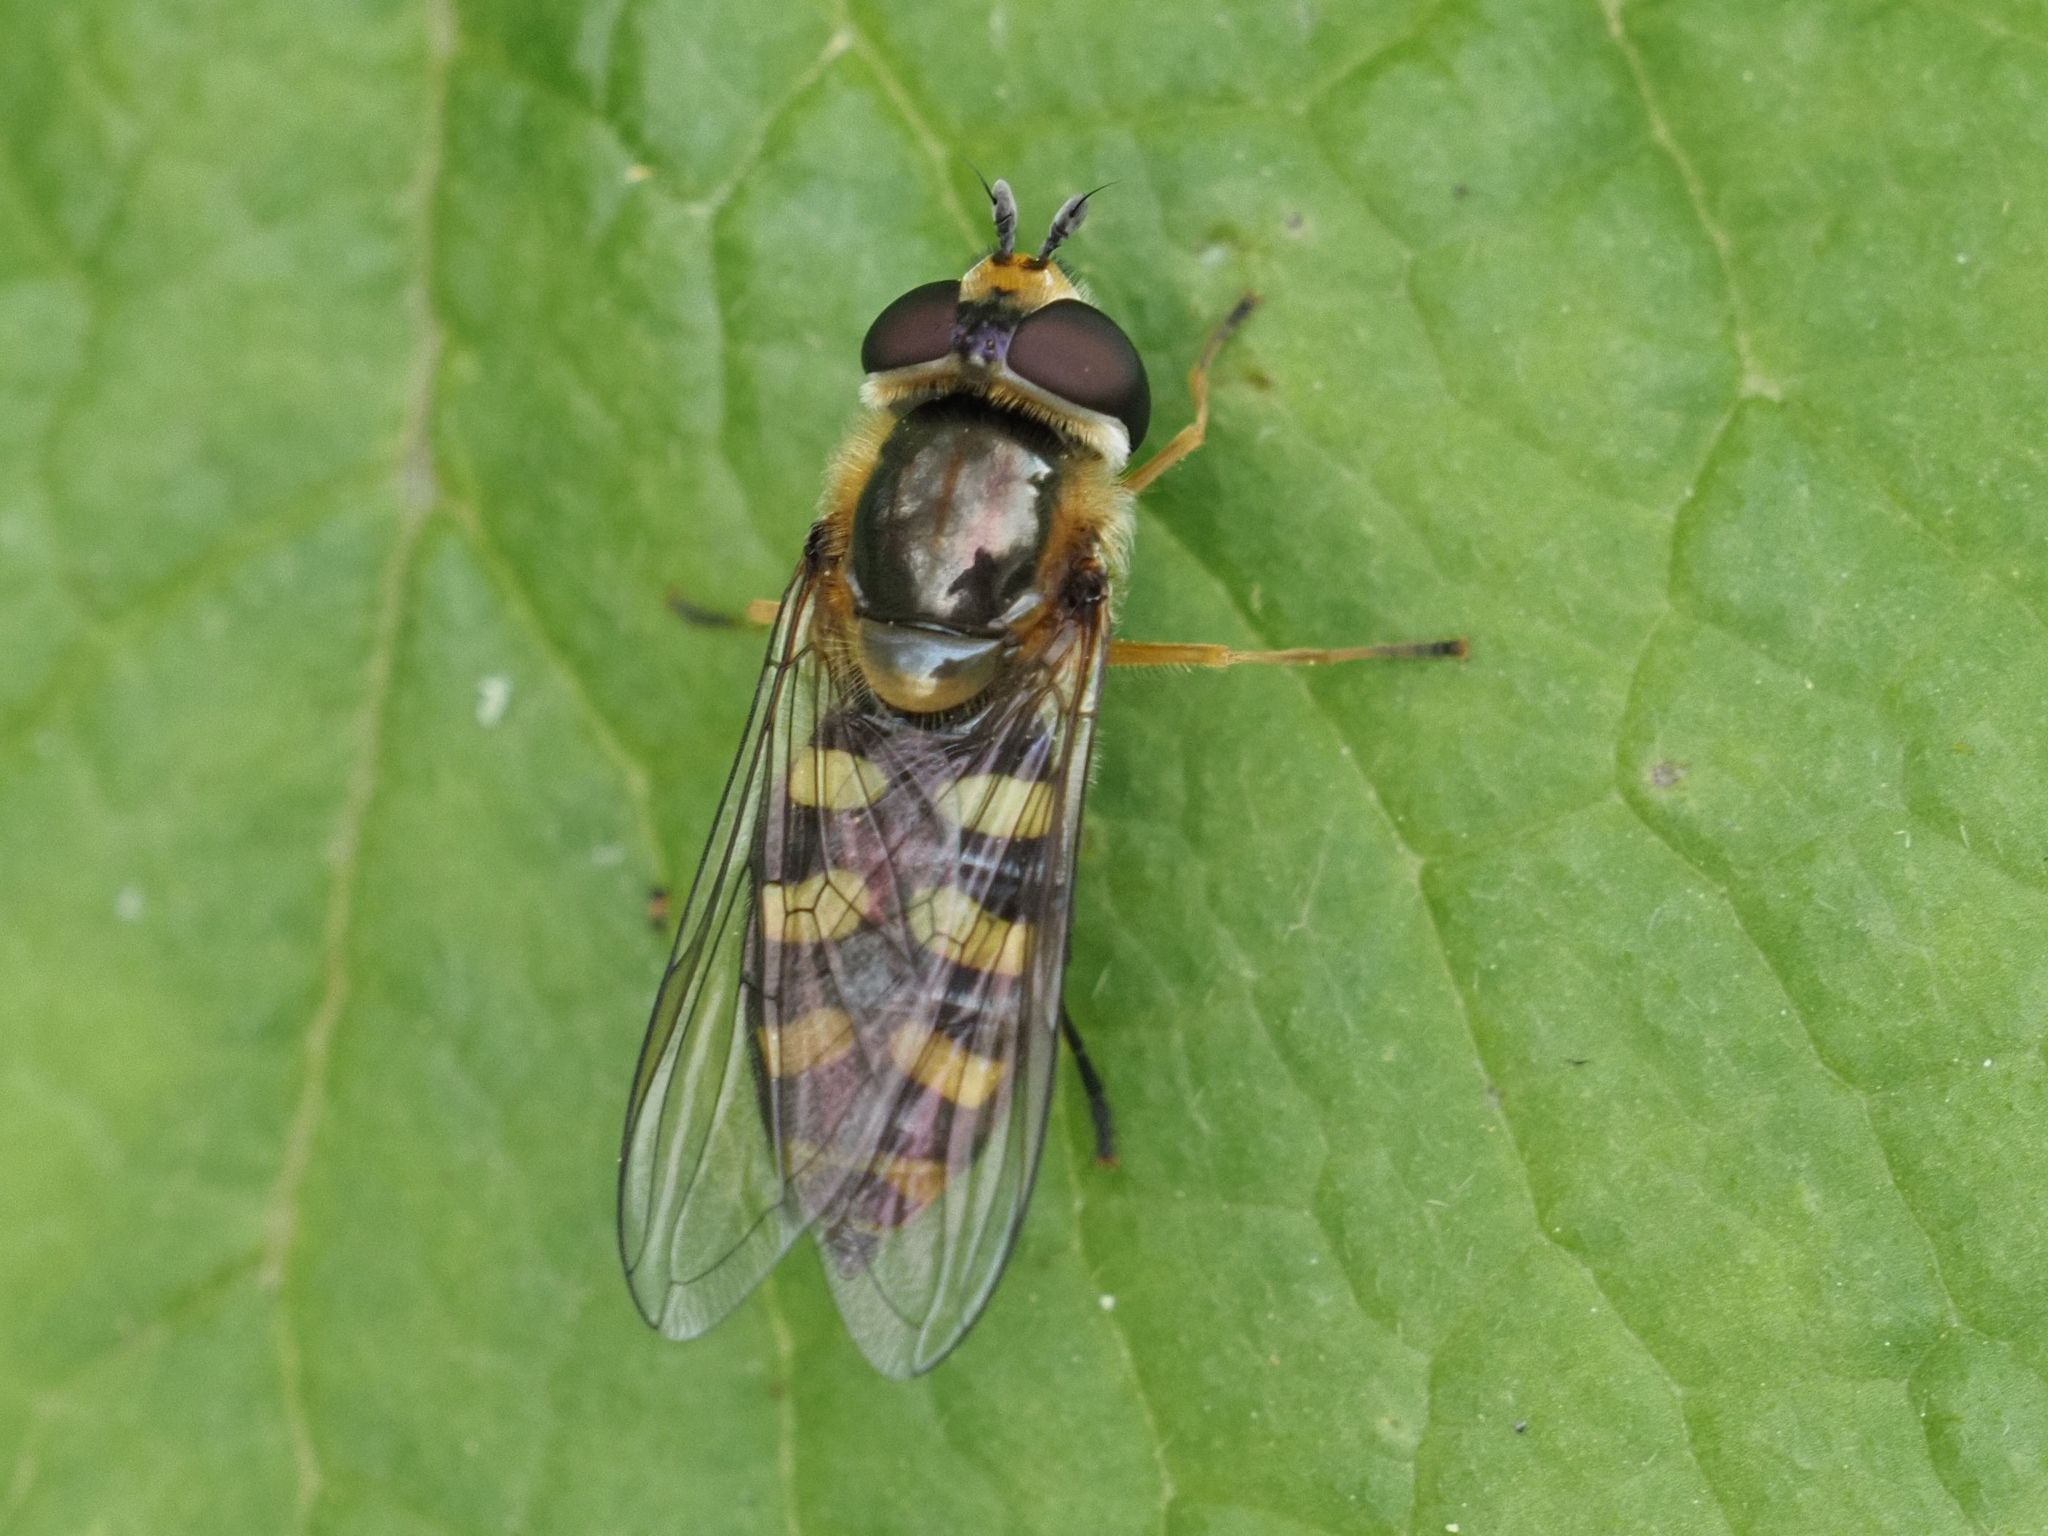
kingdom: Animalia
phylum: Arthropoda
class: Insecta
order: Diptera
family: Syrphidae
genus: Eupeodes
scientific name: Eupeodes luniger
